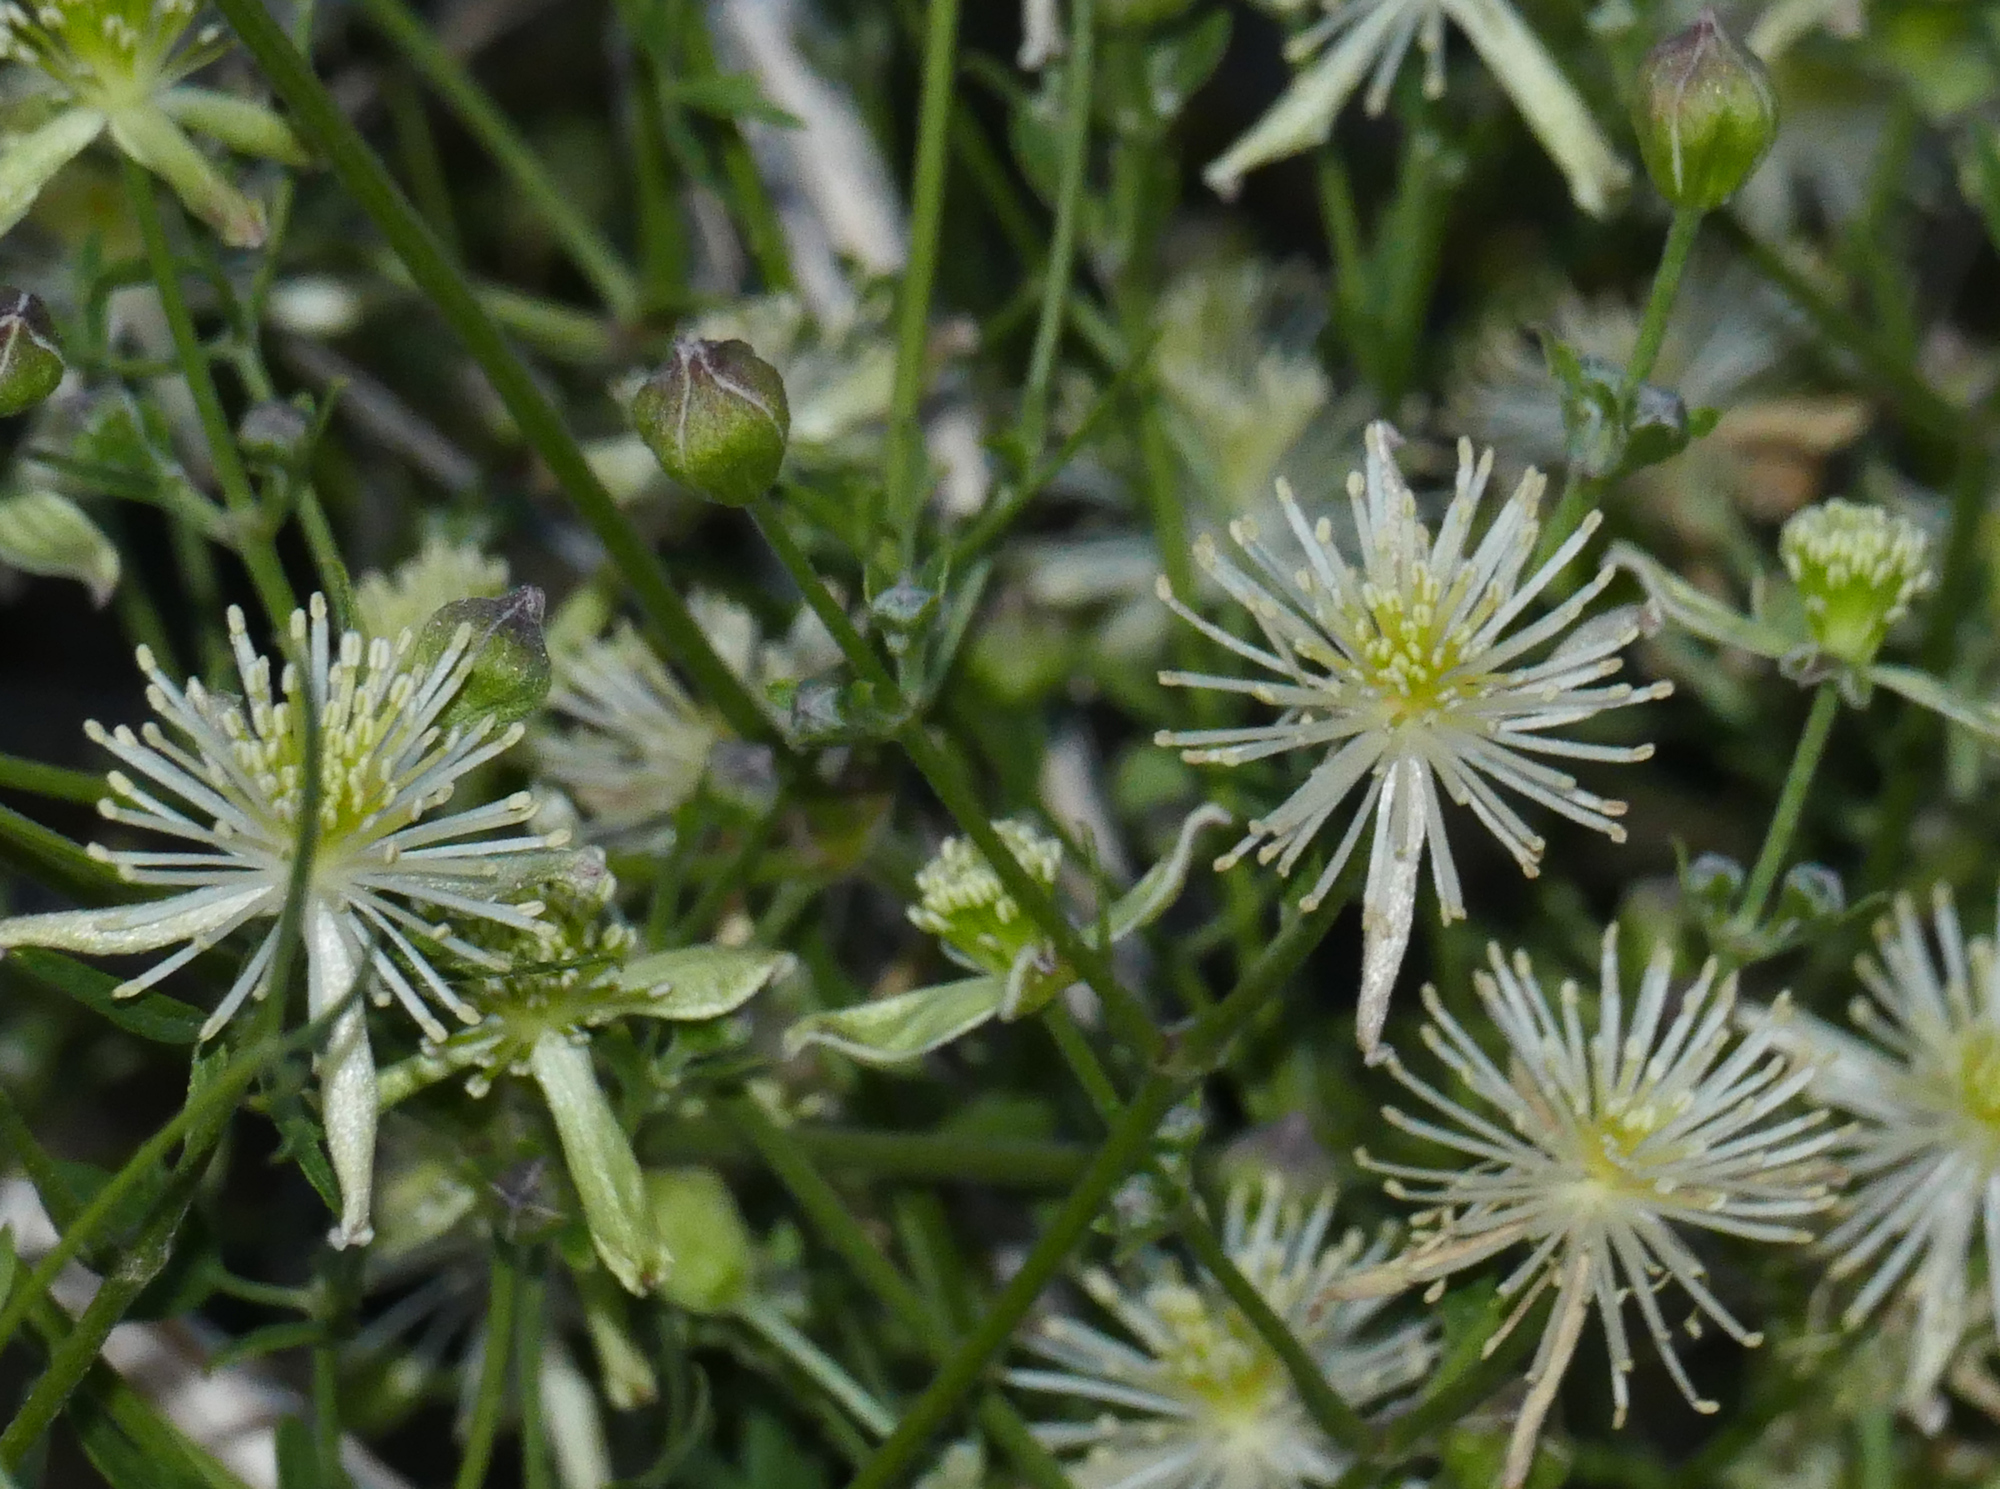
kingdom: Plantae
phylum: Tracheophyta
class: Magnoliopsida
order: Ranunculales
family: Ranunculaceae
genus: Clematis
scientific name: Clematis drummondii
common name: Texas virgin's bower
